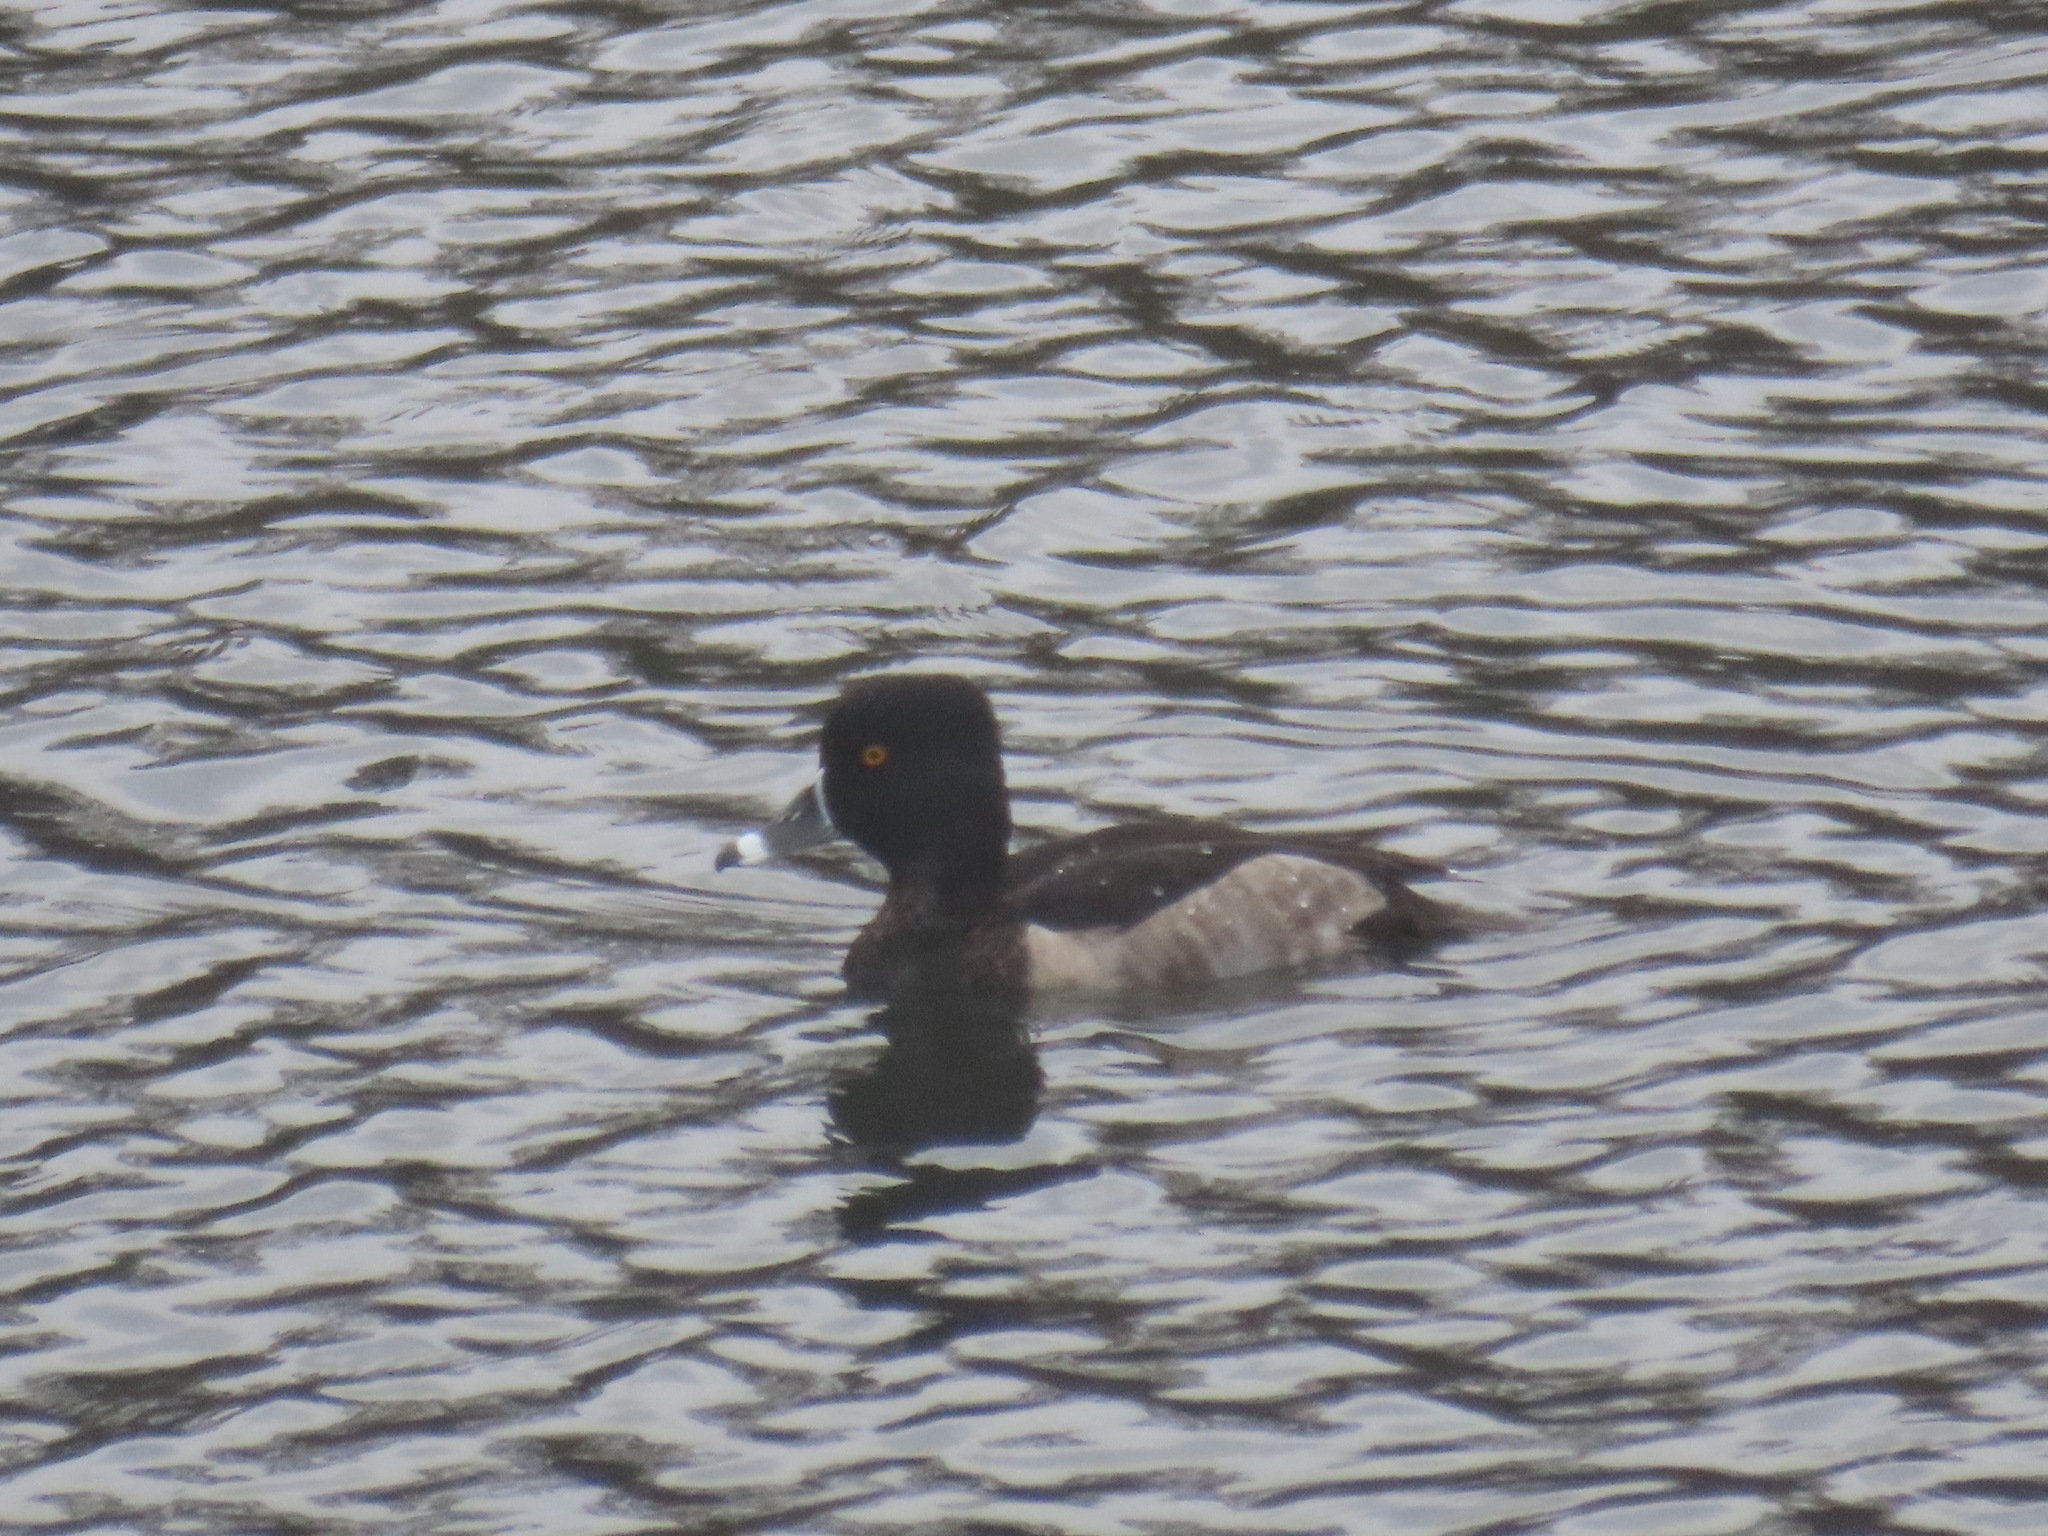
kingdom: Animalia
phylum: Chordata
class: Aves
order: Anseriformes
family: Anatidae
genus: Aythya
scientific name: Aythya collaris
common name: Ring-necked duck
